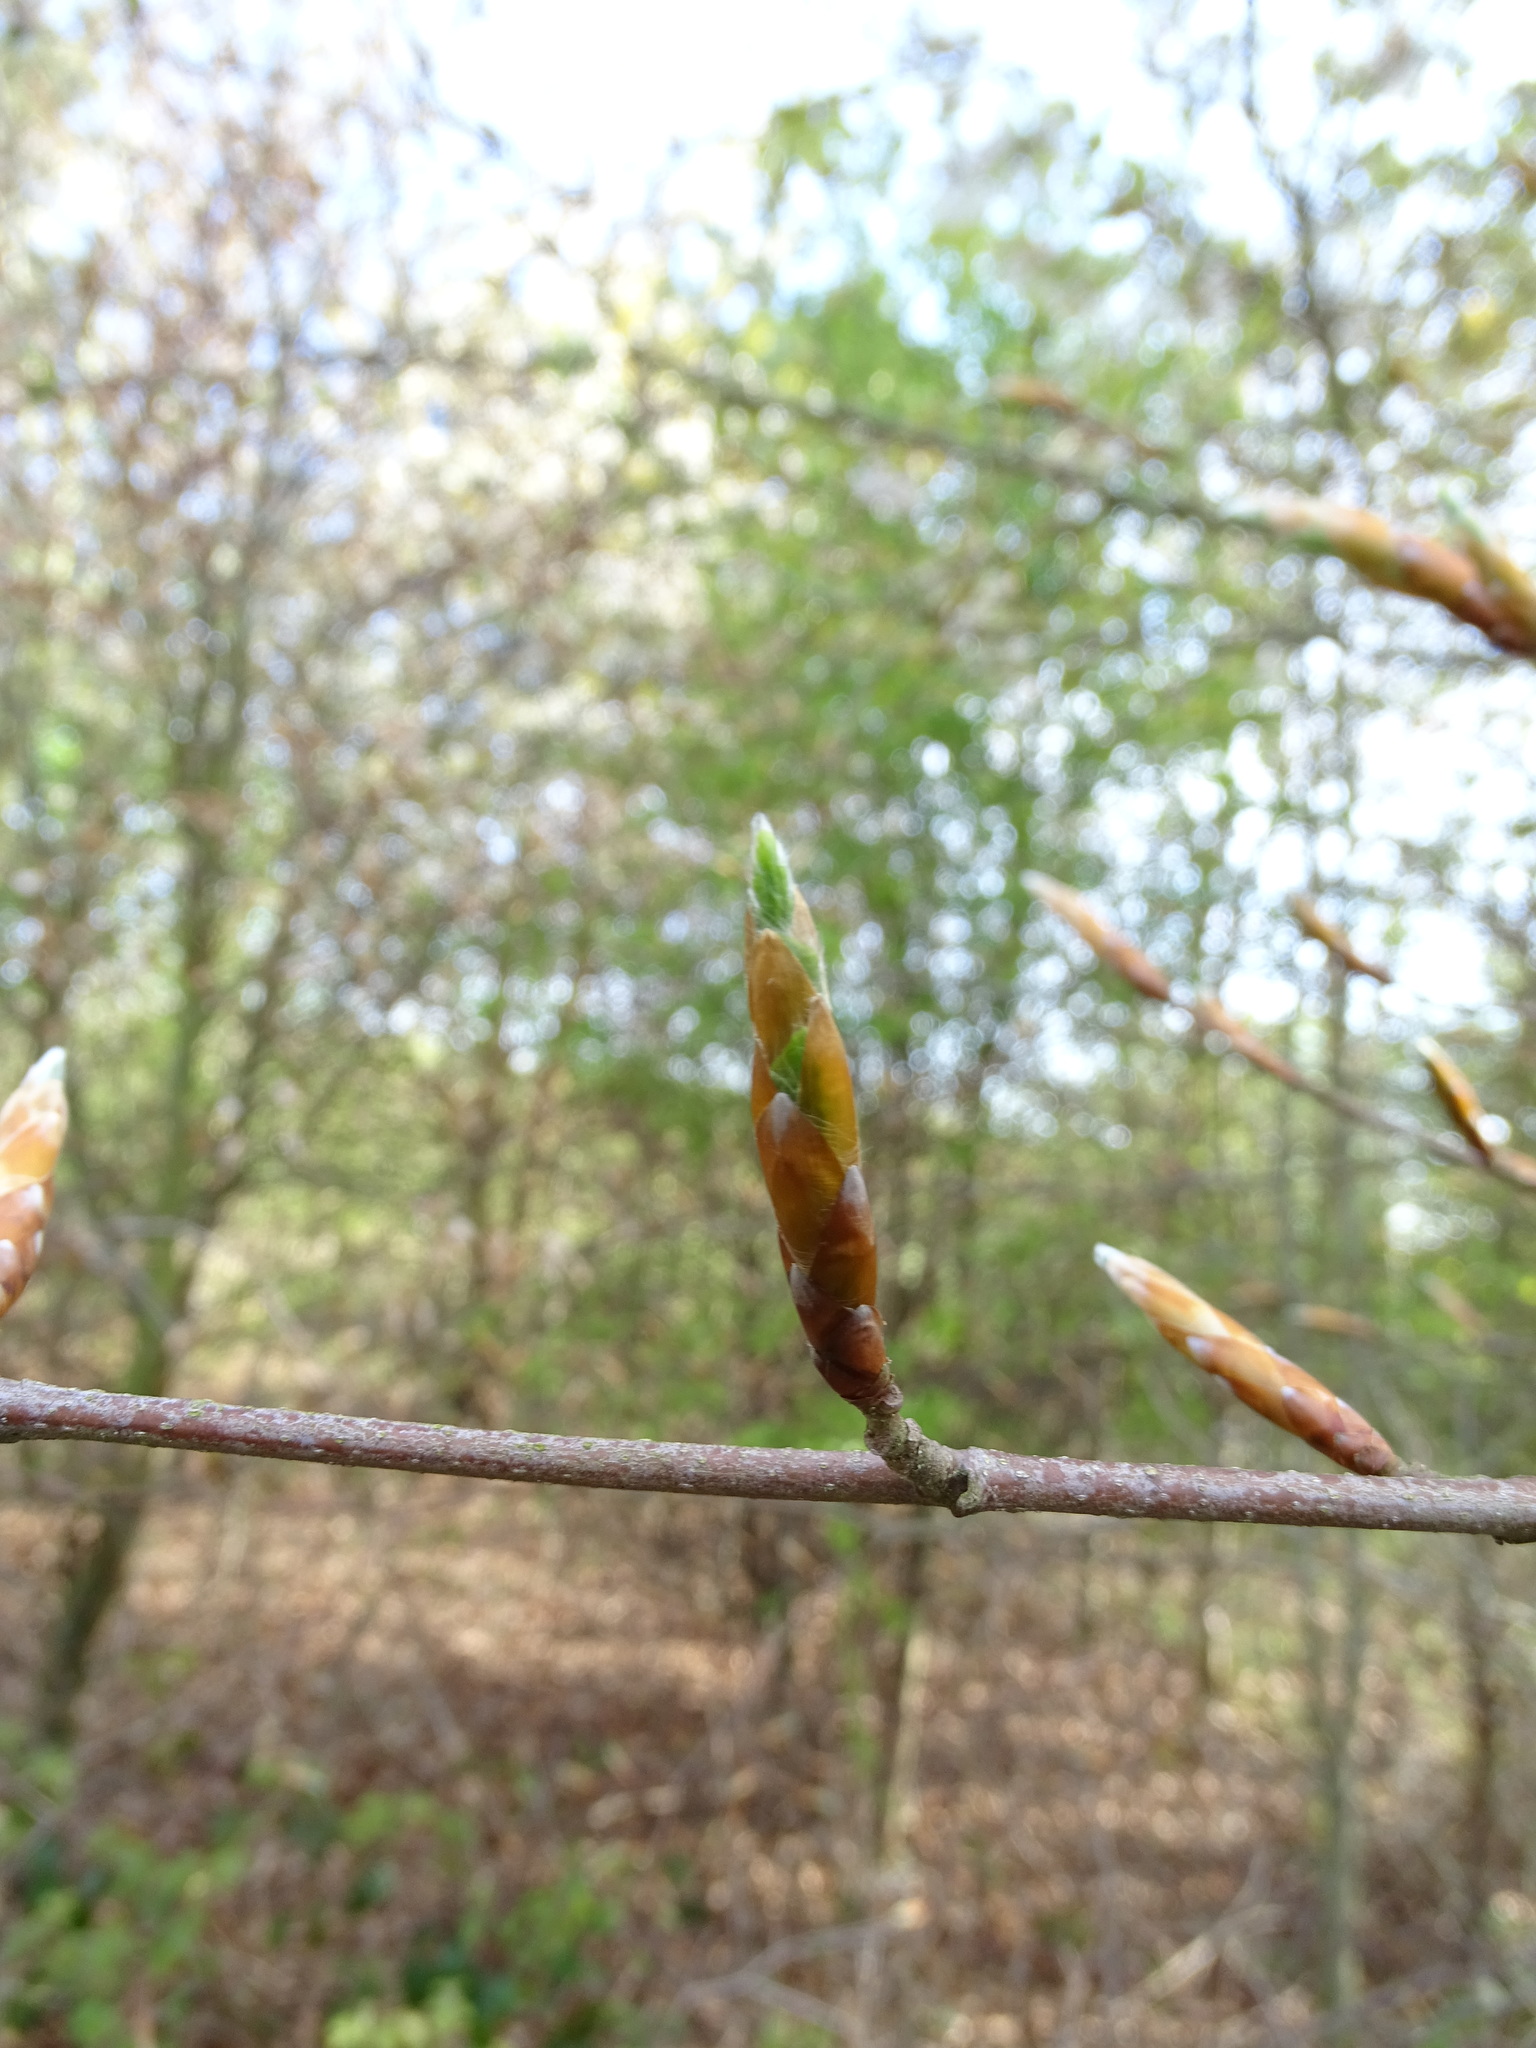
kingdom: Plantae
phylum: Tracheophyta
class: Magnoliopsida
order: Fagales
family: Fagaceae
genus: Fagus
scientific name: Fagus sylvatica
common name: Beech
